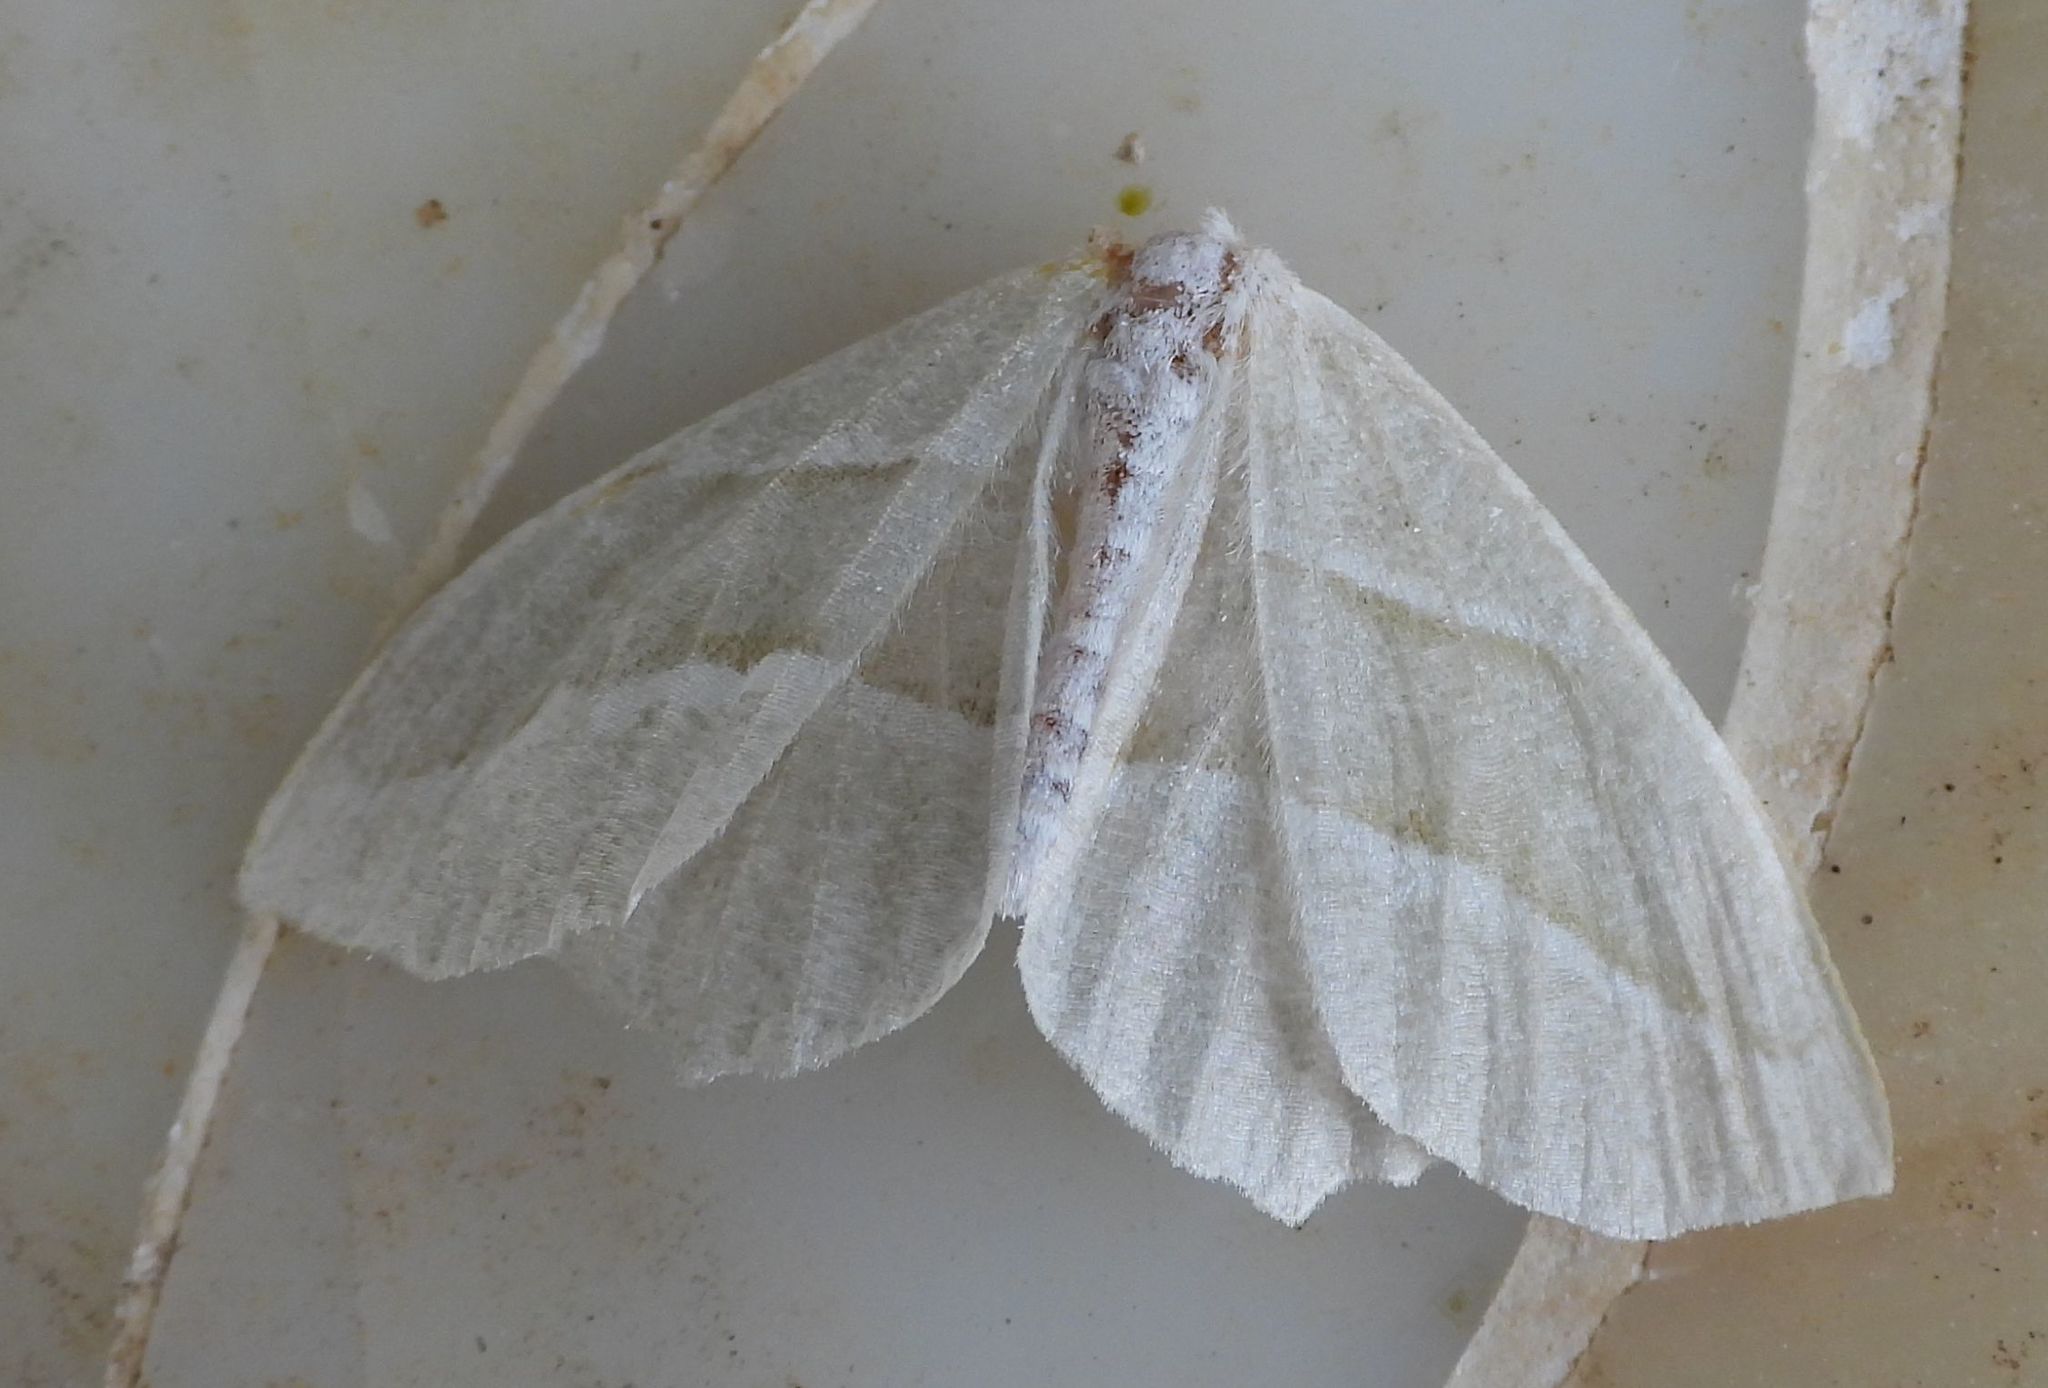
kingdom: Animalia
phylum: Arthropoda
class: Insecta
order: Lepidoptera
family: Geometridae
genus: Campaea
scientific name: Campaea perlata
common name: Fringed looper
